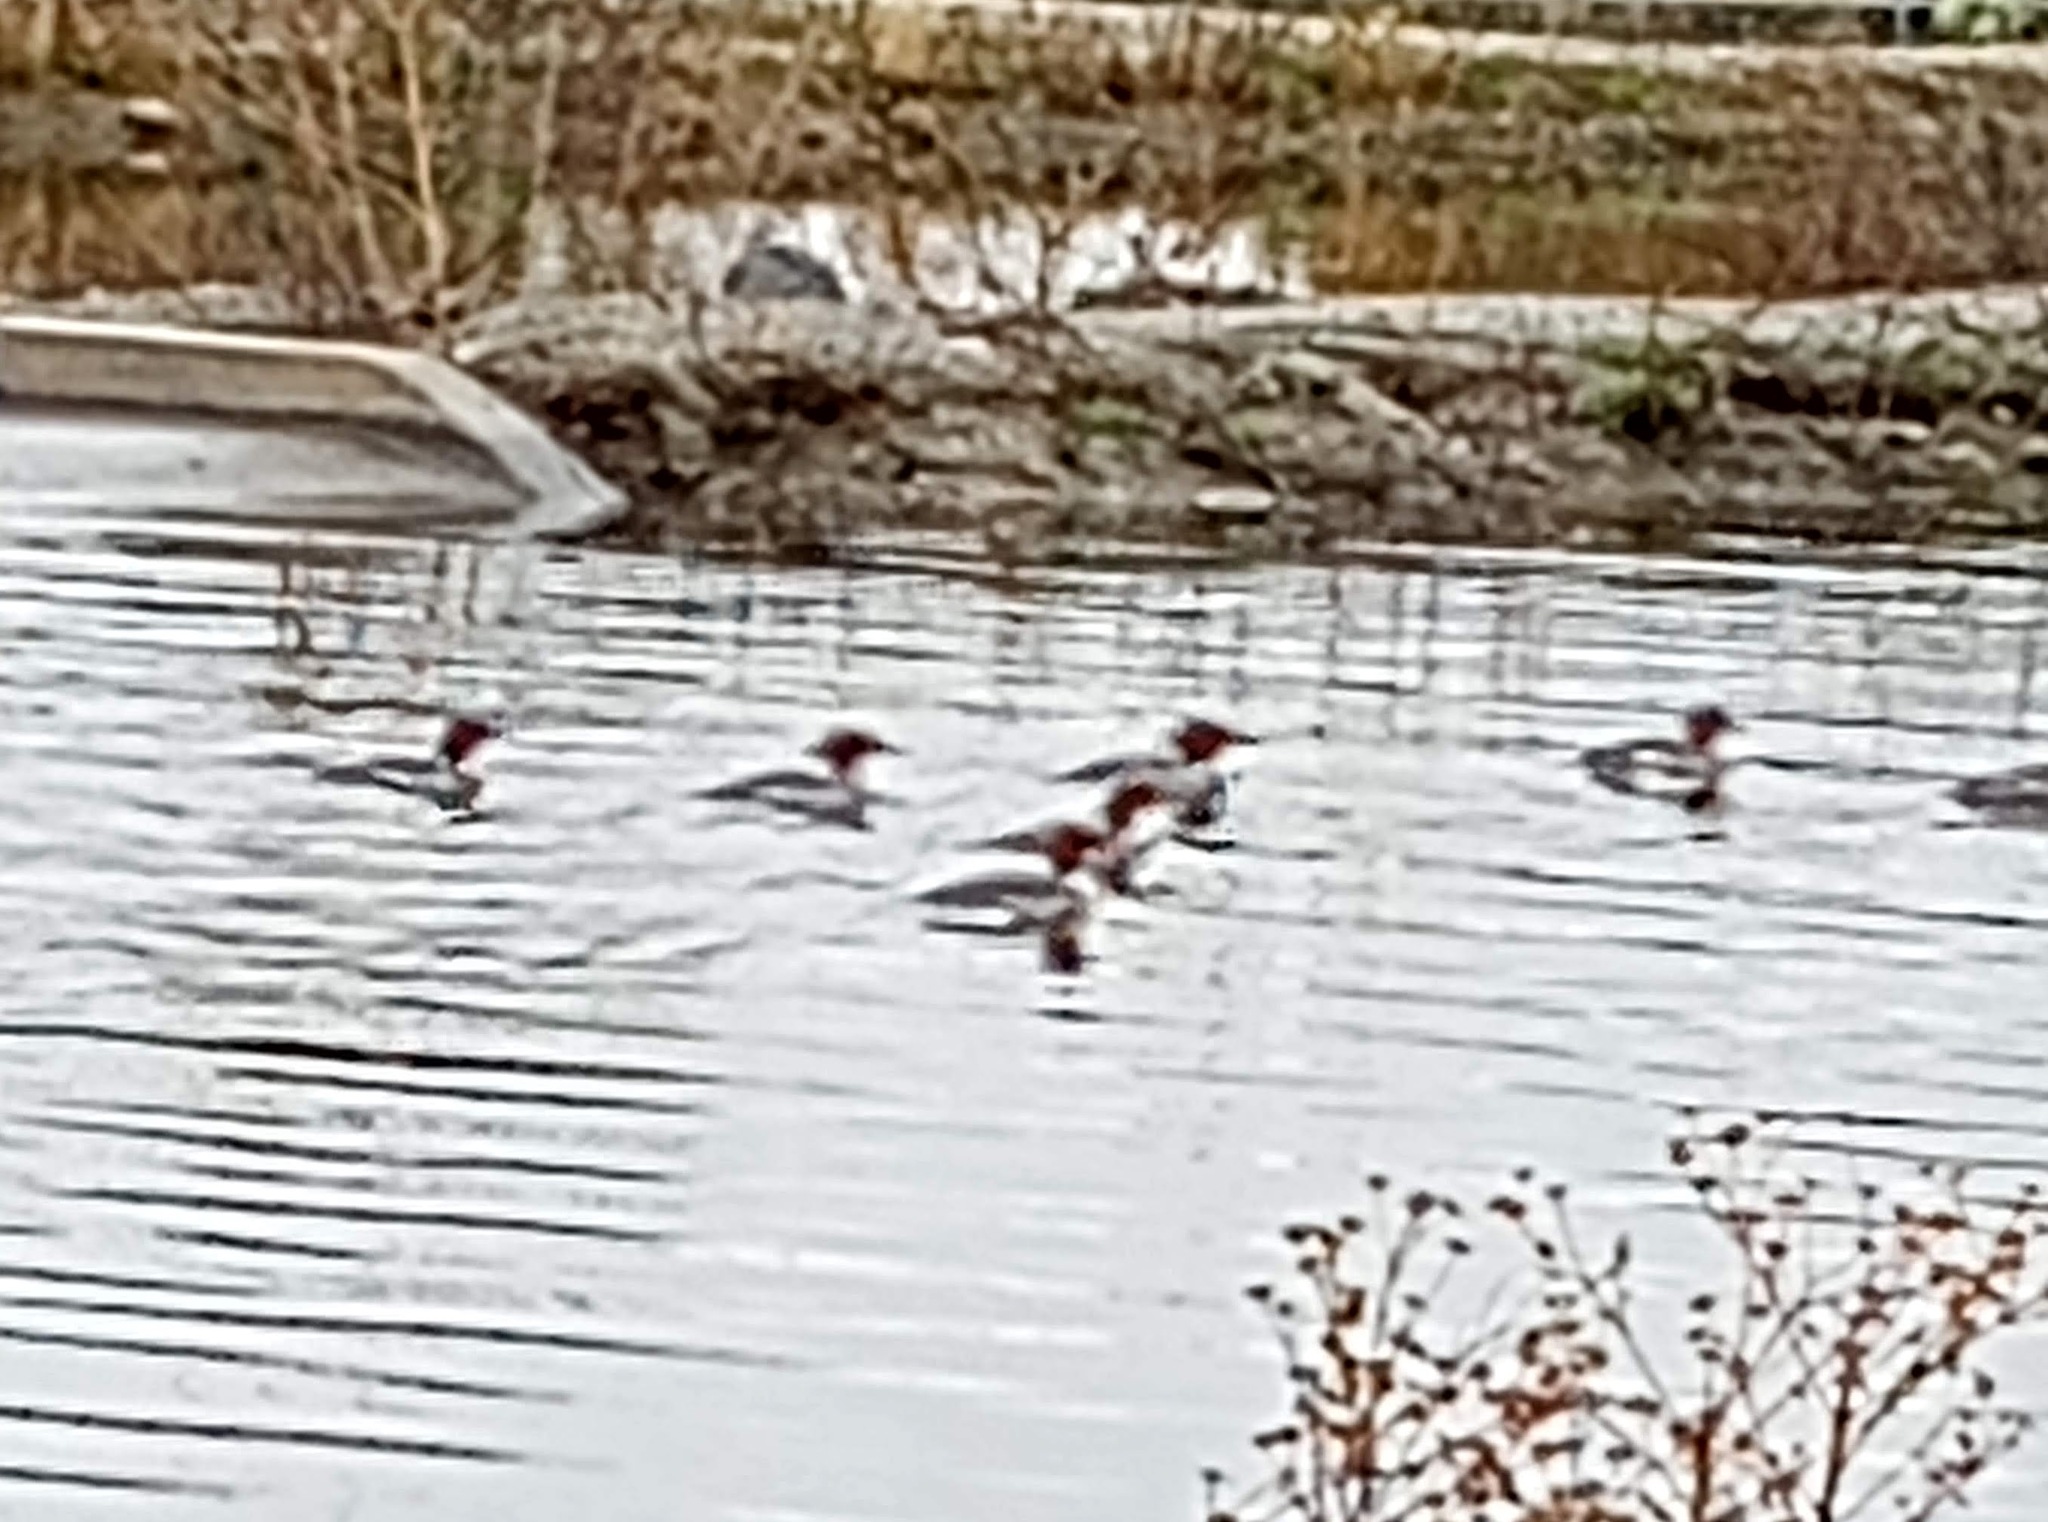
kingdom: Animalia
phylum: Chordata
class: Aves
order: Anseriformes
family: Anatidae
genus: Mergus
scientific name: Mergus merganser
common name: Common merganser
